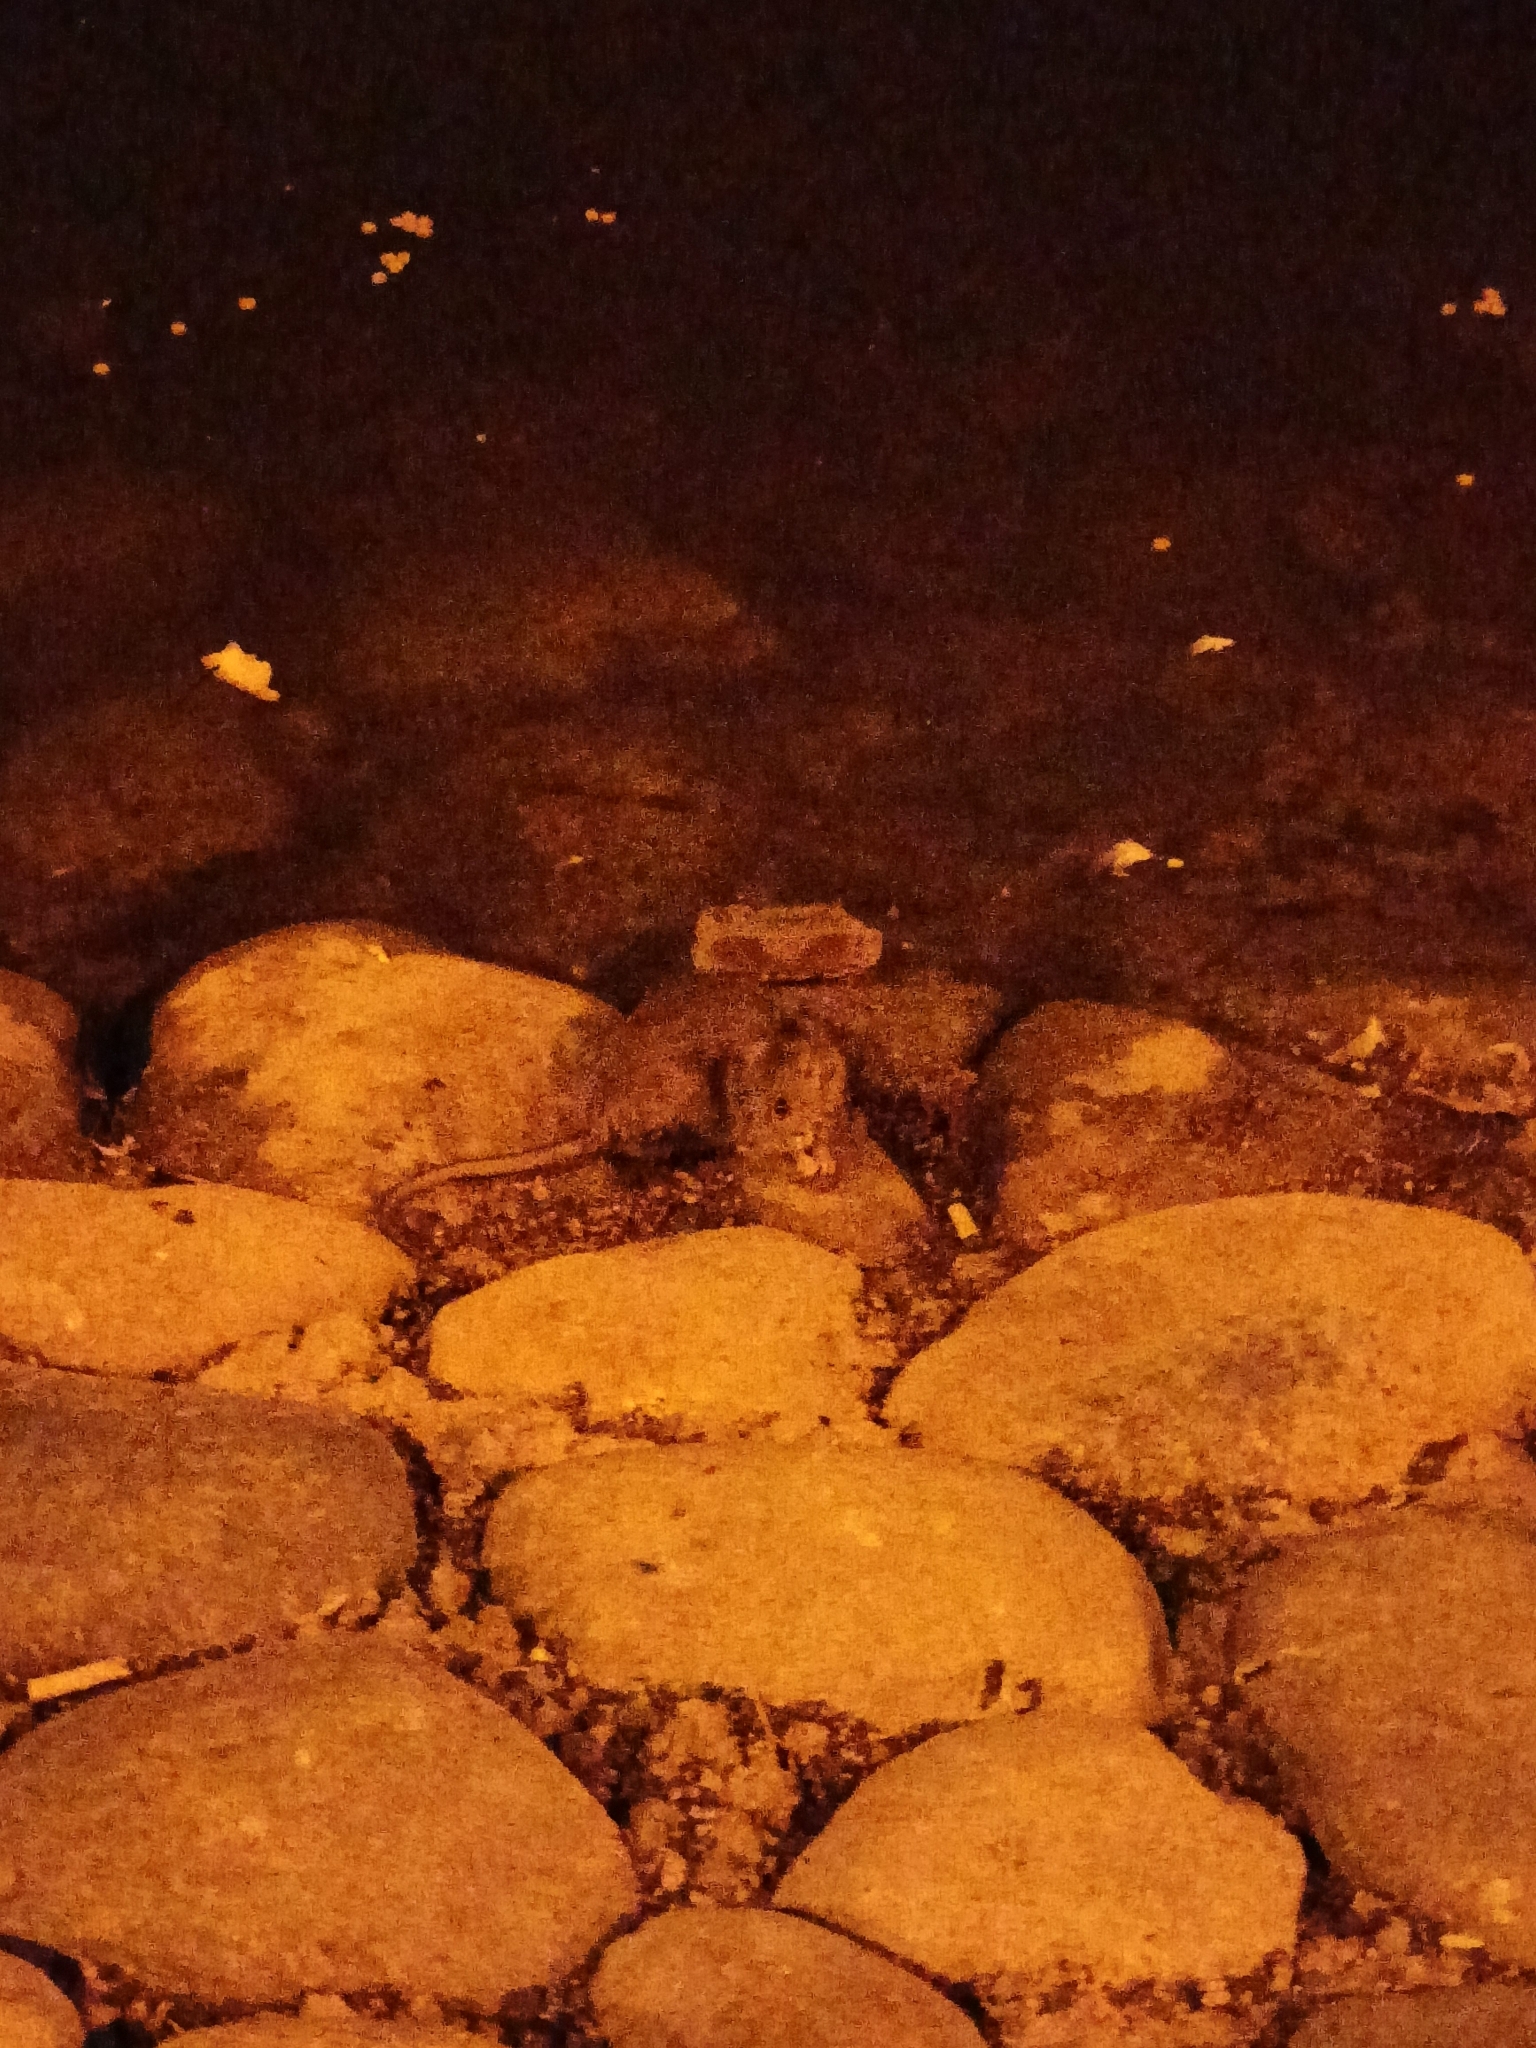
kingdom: Animalia
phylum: Chordata
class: Mammalia
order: Rodentia
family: Muridae
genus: Rattus
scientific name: Rattus norvegicus
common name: Brown rat
